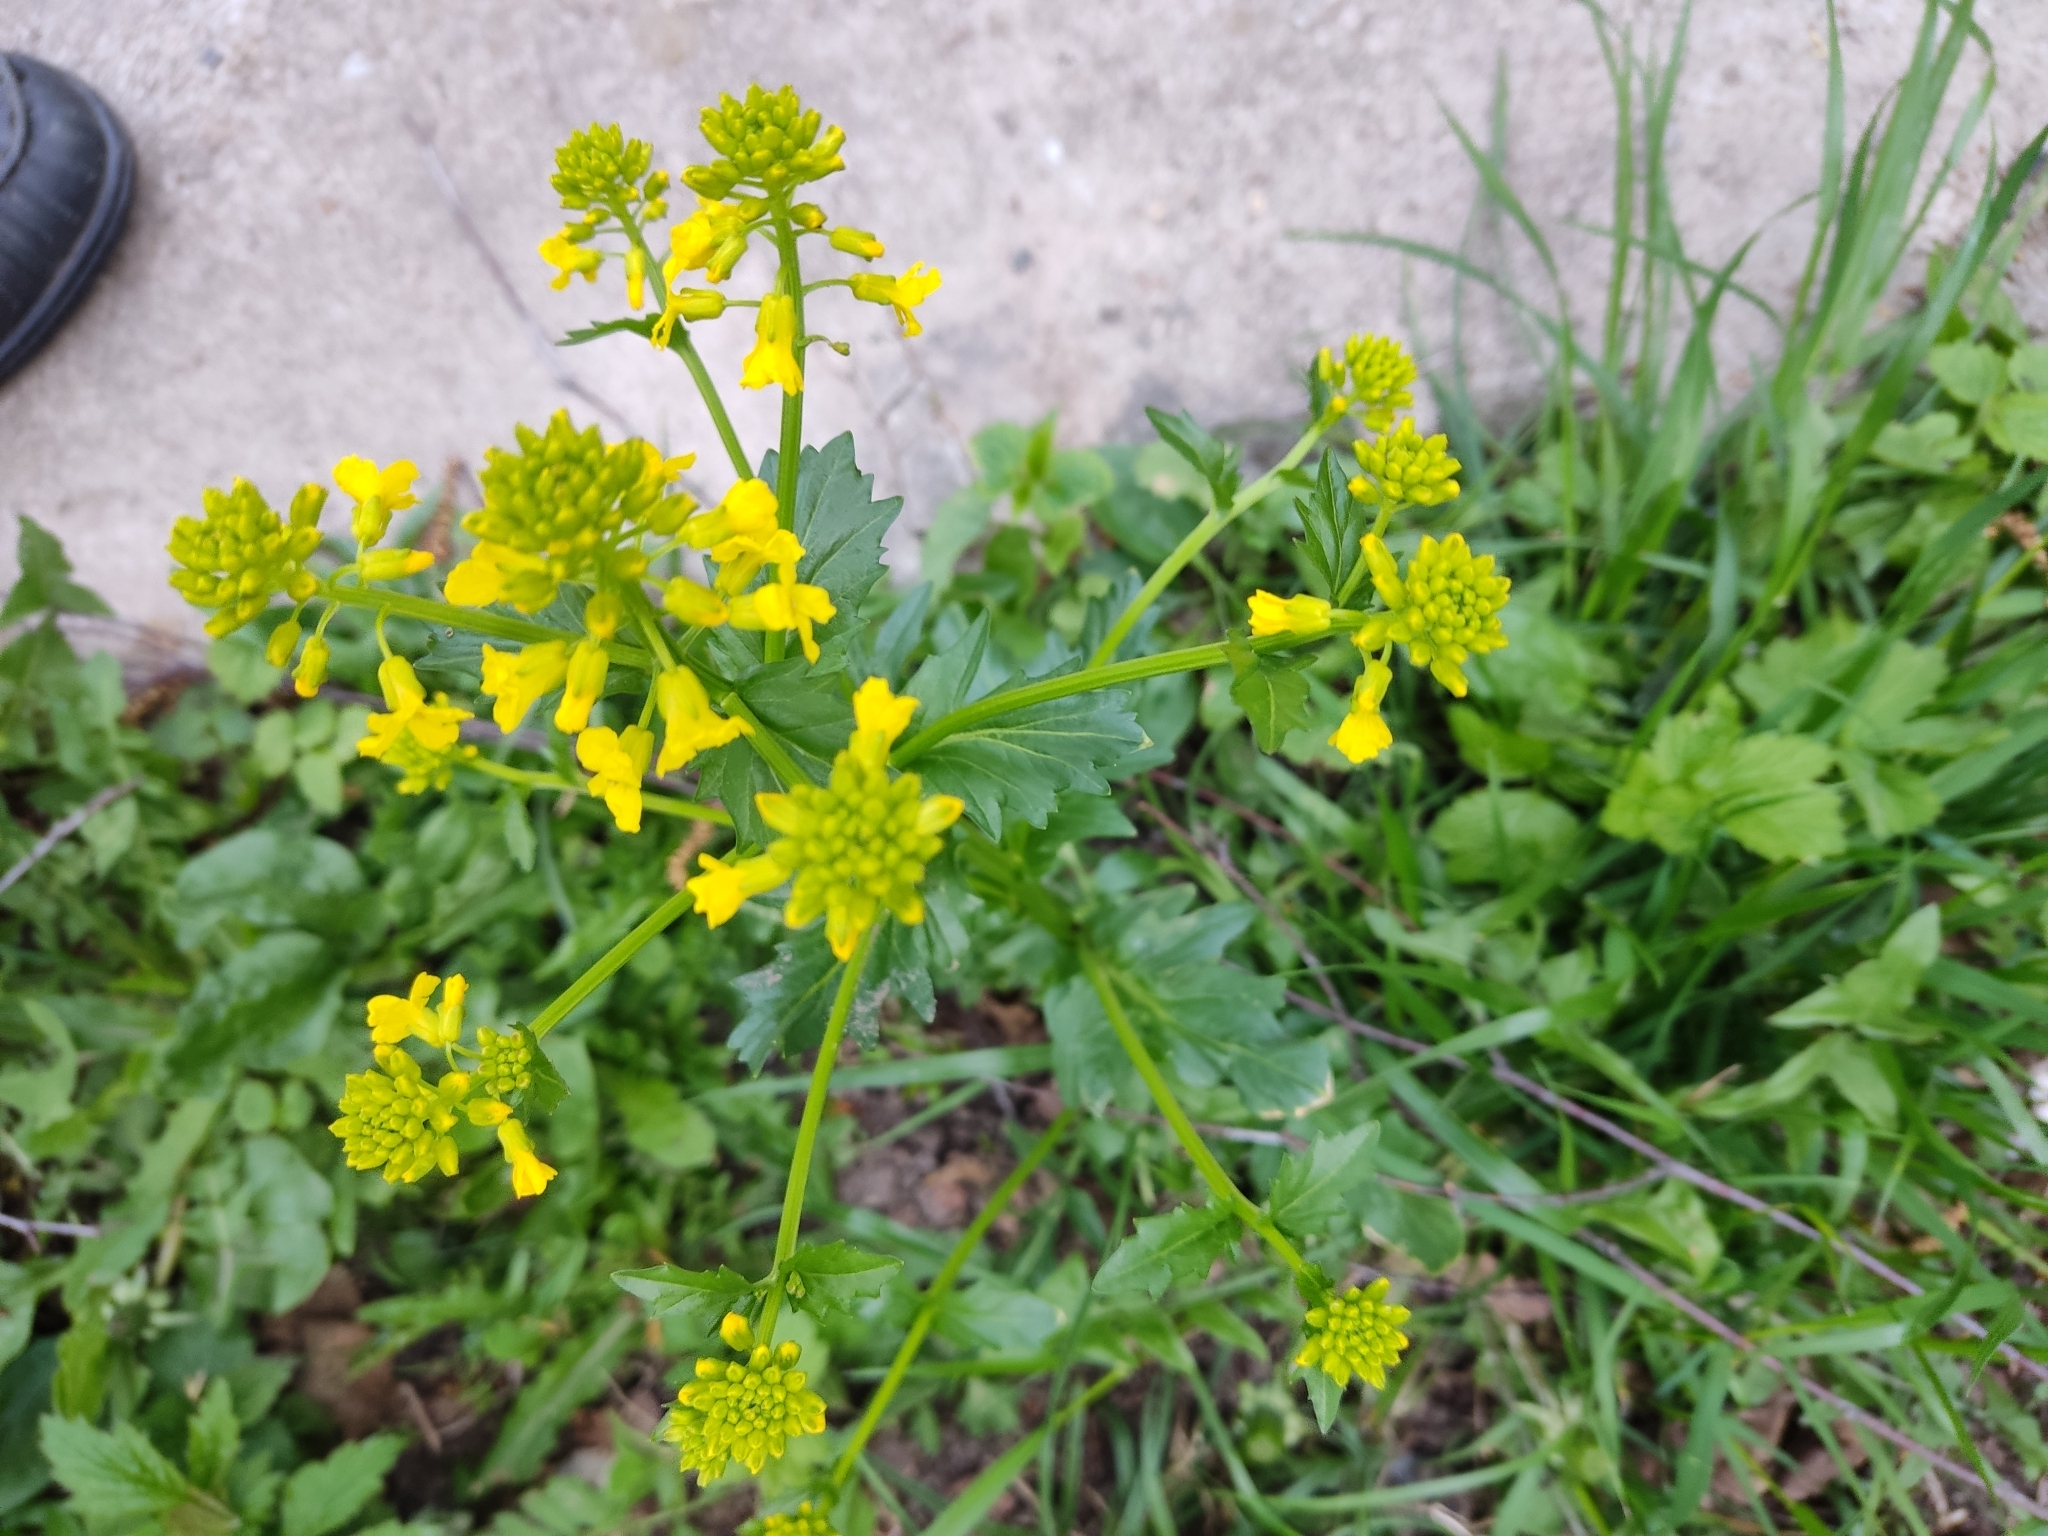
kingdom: Plantae
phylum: Tracheophyta
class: Magnoliopsida
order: Brassicales
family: Brassicaceae
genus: Barbarea
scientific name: Barbarea vulgaris
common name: Cressy-greens
